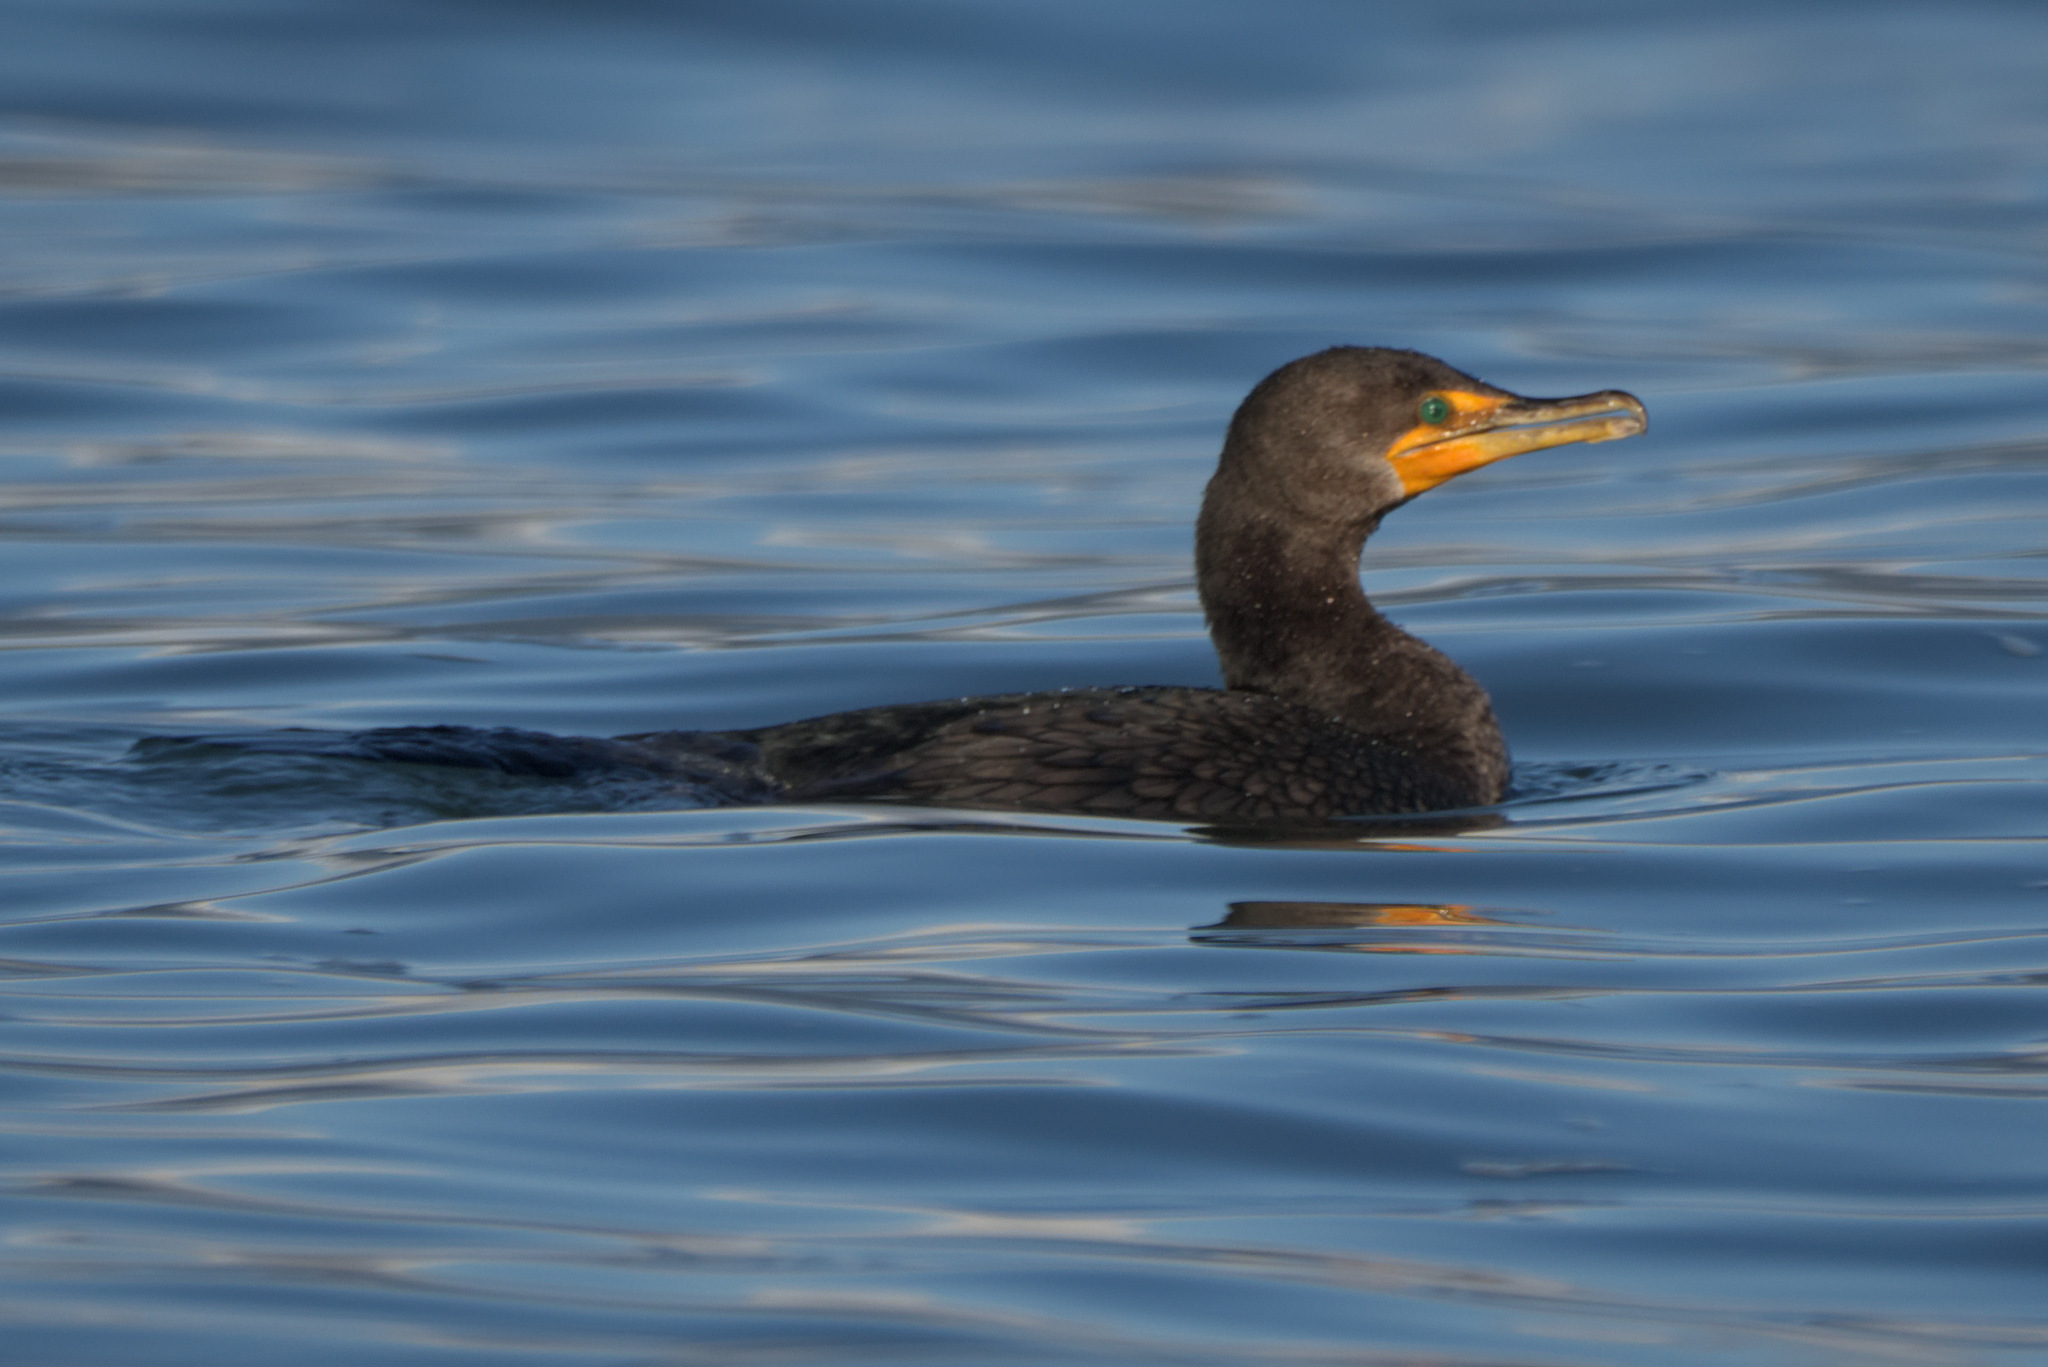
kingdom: Animalia
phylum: Chordata
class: Aves
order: Suliformes
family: Phalacrocoracidae
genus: Phalacrocorax
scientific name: Phalacrocorax auritus
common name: Double-crested cormorant
